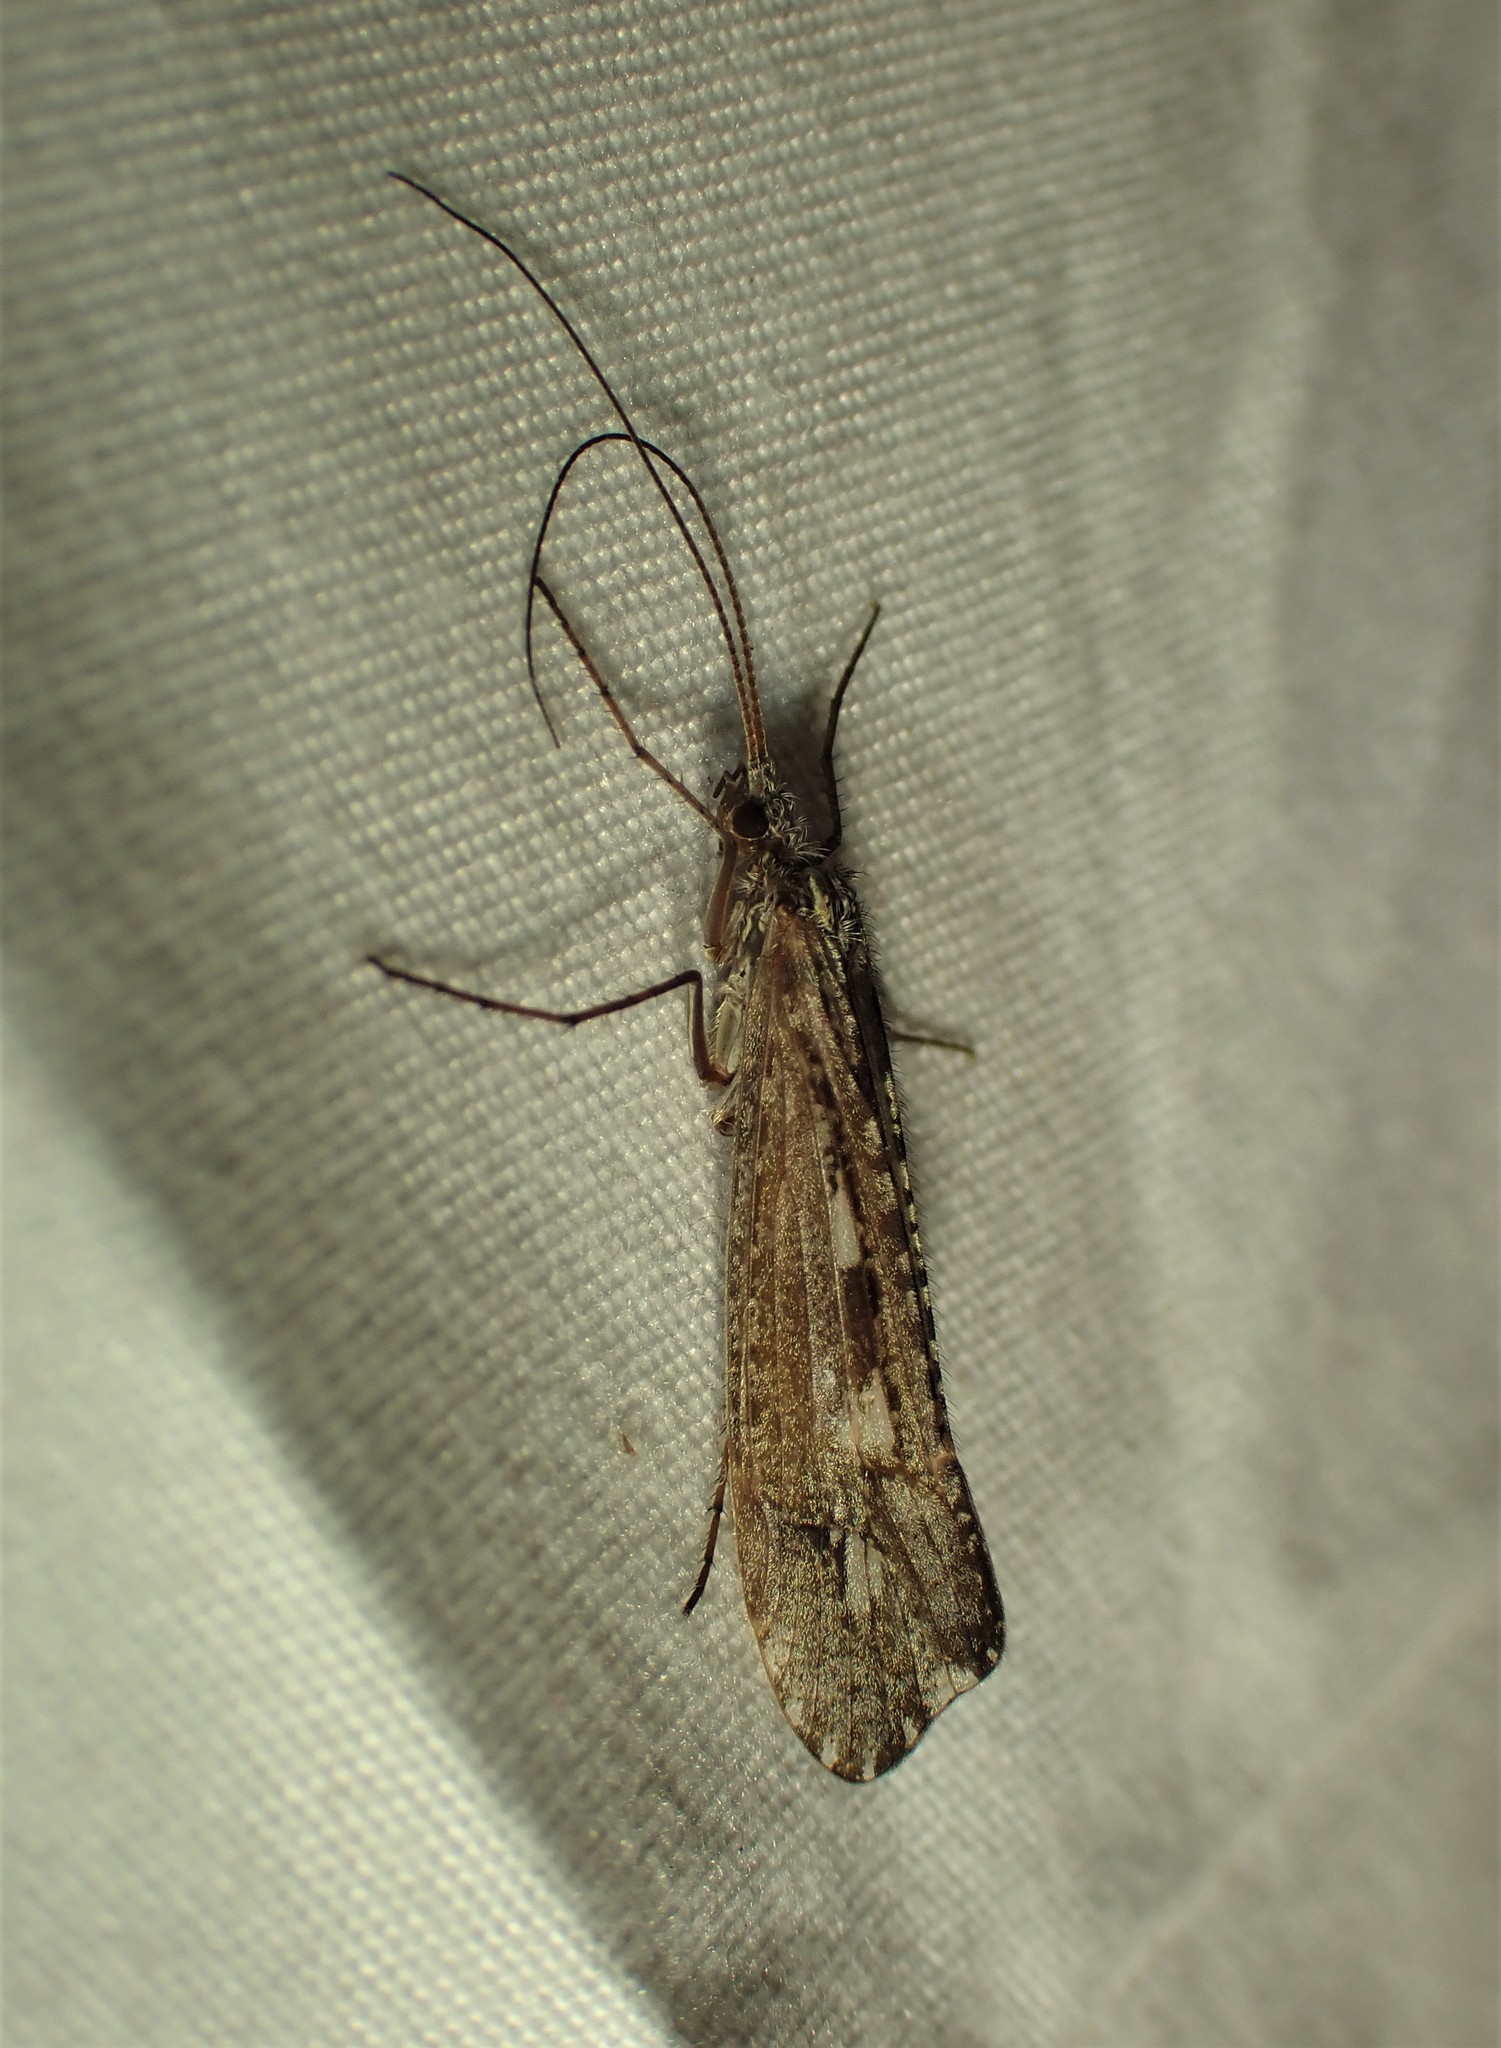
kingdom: Animalia
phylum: Arthropoda
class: Insecta
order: Trichoptera
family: Limnephilidae
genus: Glyphopsyche
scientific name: Glyphopsyche irrorata
